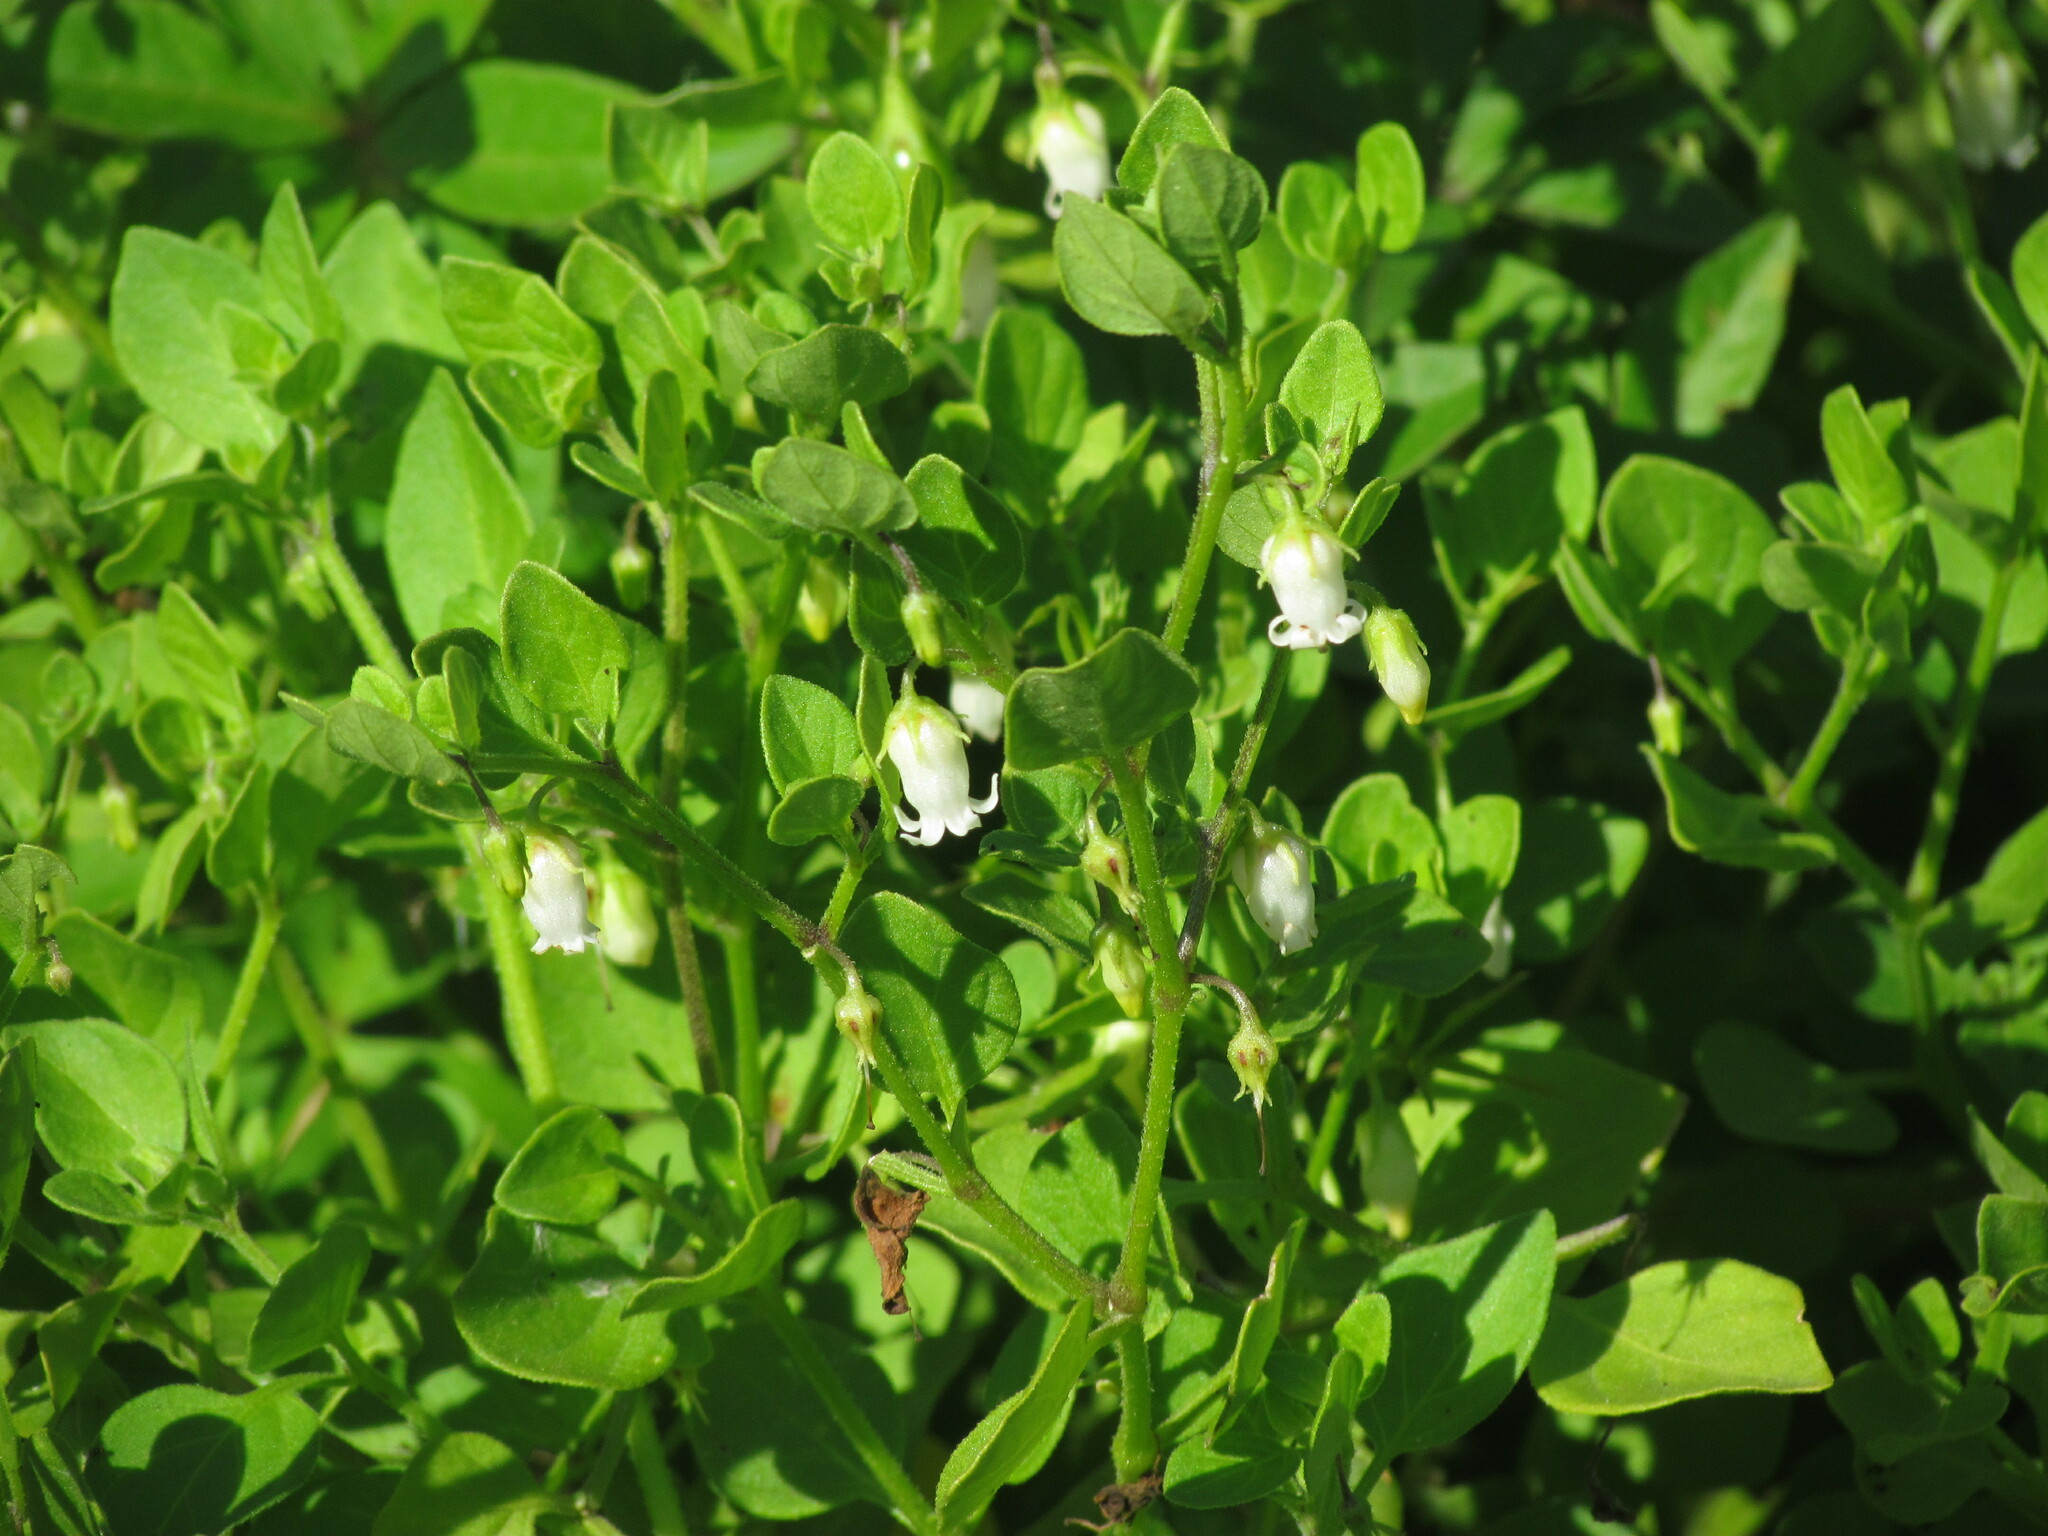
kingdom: Plantae
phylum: Tracheophyta
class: Magnoliopsida
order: Solanales
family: Solanaceae
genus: Salpichroa
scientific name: Salpichroa origanifolia
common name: Lily-of-the-valley-vine
